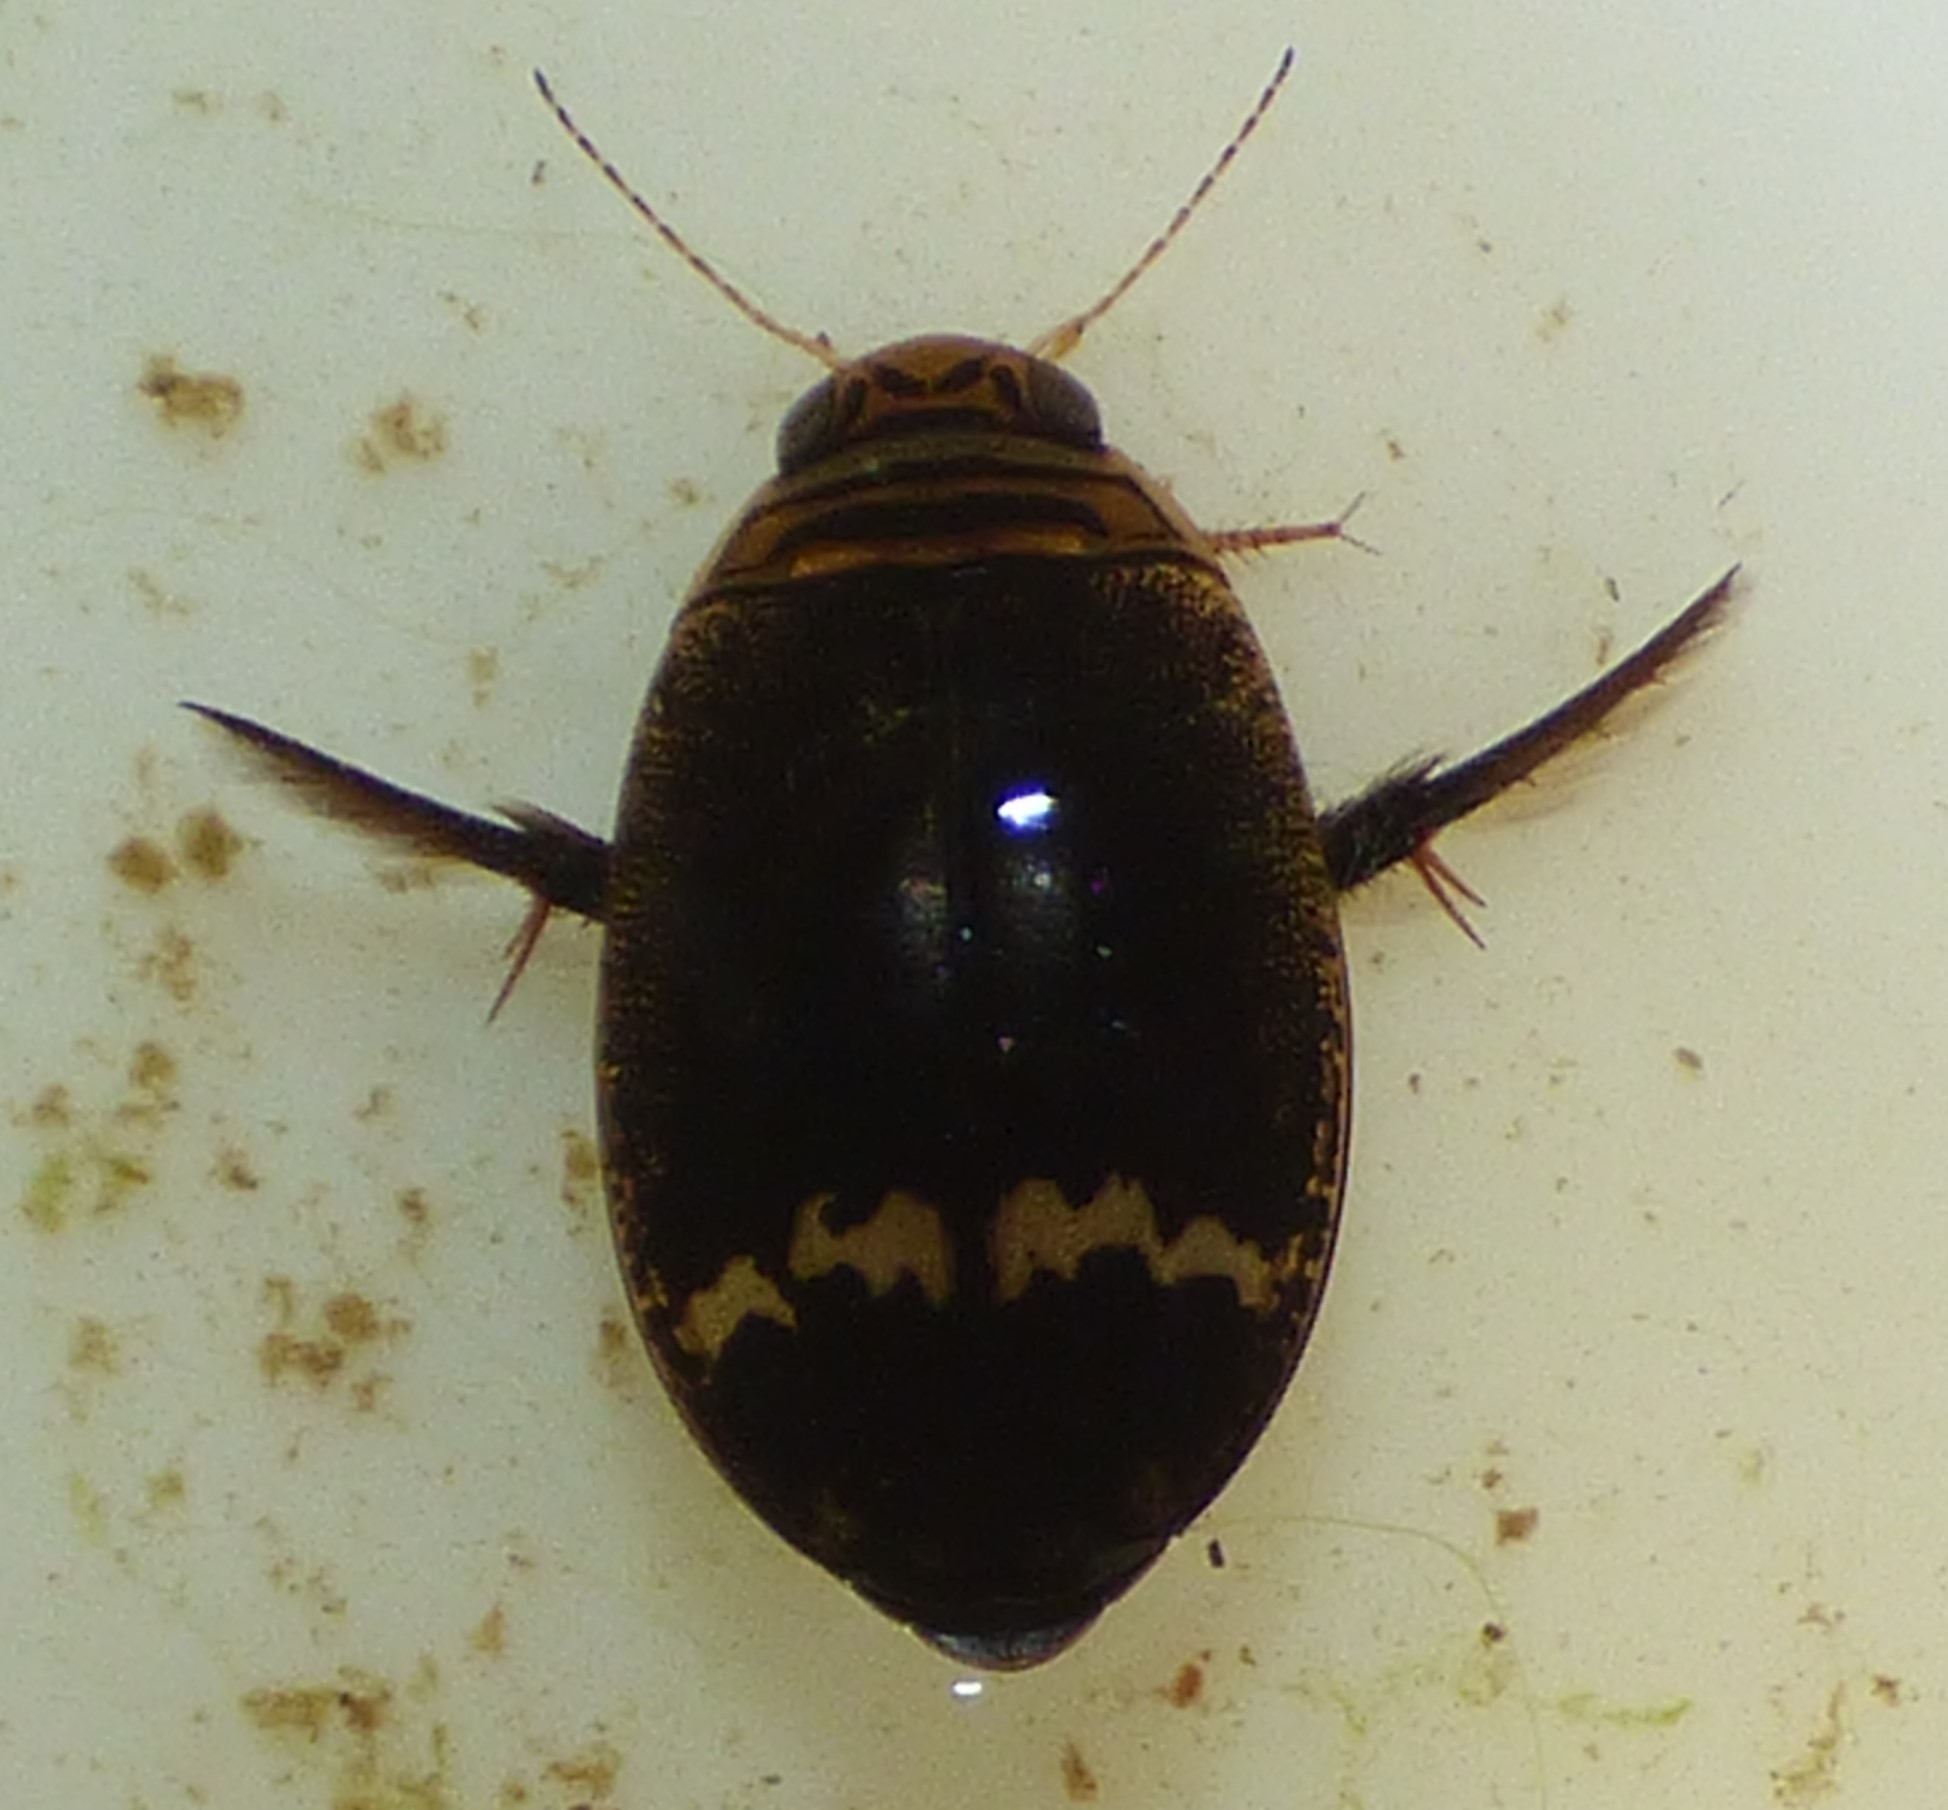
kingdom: Animalia
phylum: Arthropoda
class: Insecta
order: Coleoptera
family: Dytiscidae
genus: Acilius
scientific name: Acilius mediatus
